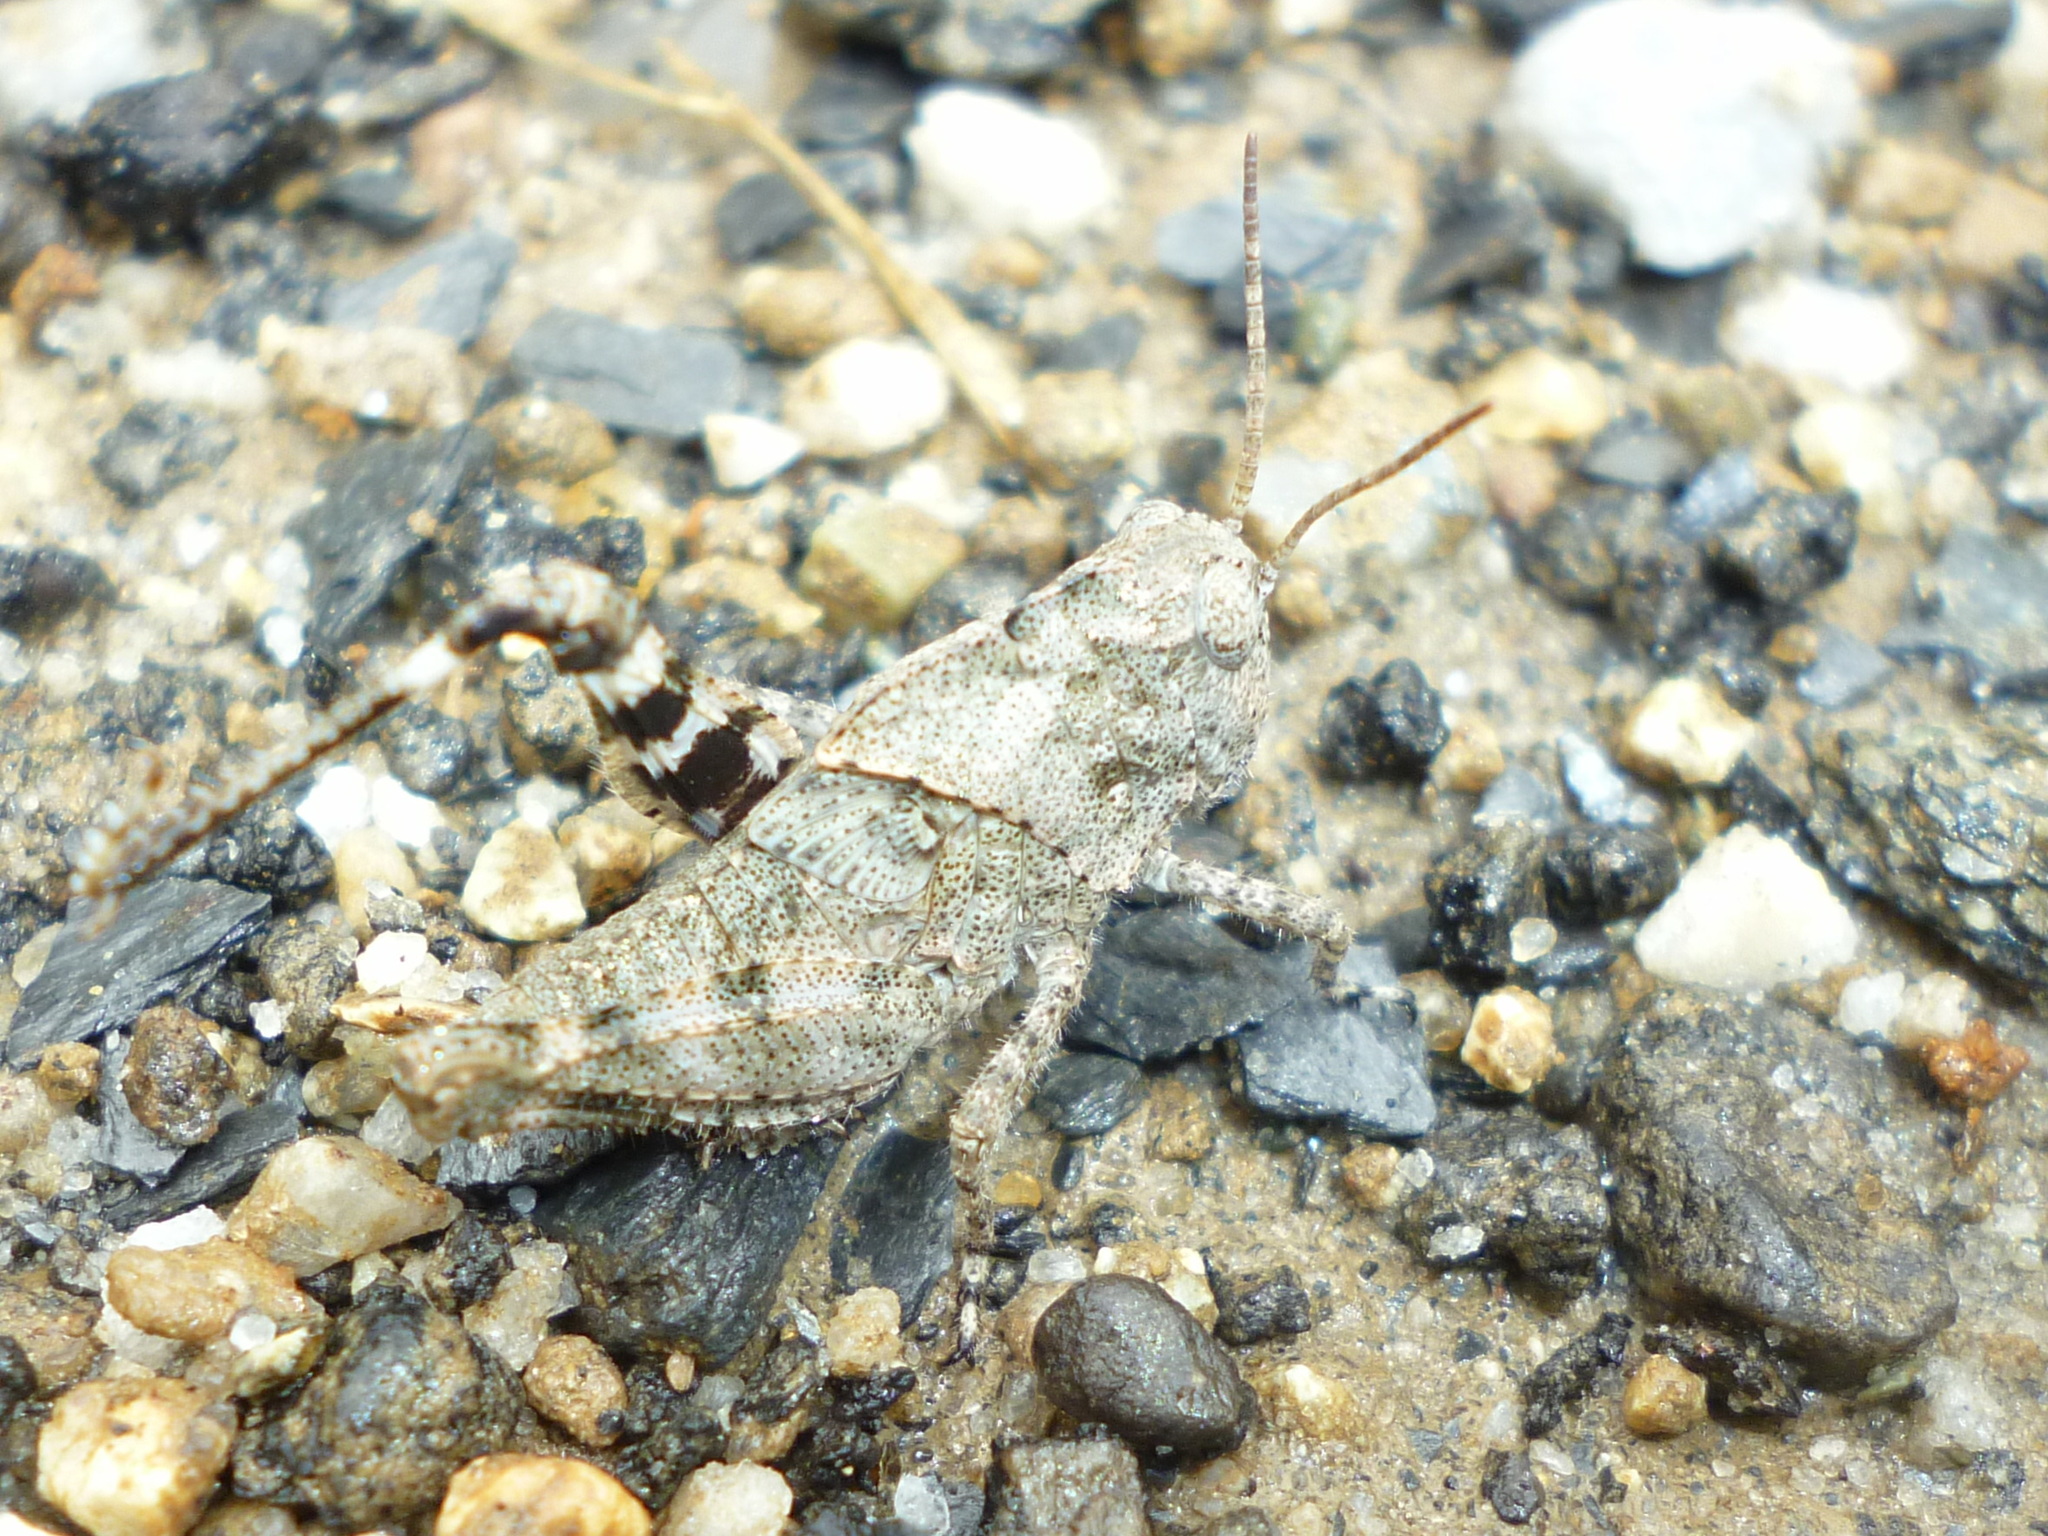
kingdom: Animalia
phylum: Arthropoda
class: Insecta
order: Orthoptera
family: Acrididae
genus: Dissosteira
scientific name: Dissosteira carolina
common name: Carolina grasshopper
